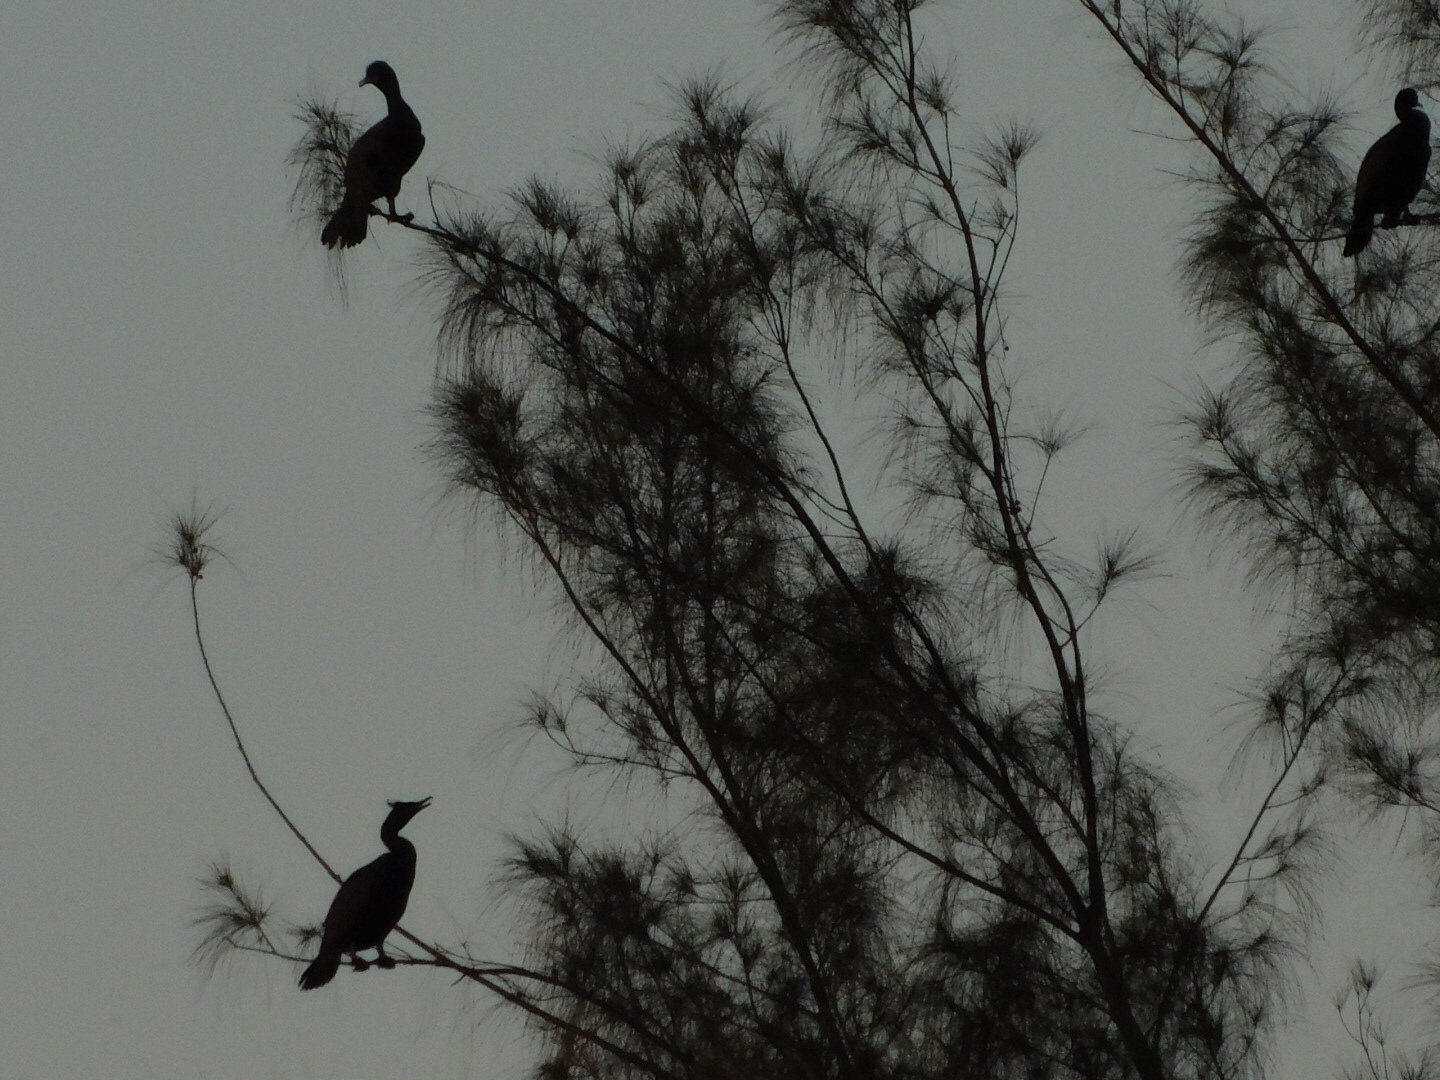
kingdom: Animalia
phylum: Chordata
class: Aves
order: Suliformes
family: Phalacrocoracidae
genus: Phalacrocorax
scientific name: Phalacrocorax auritus
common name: Double-crested cormorant
